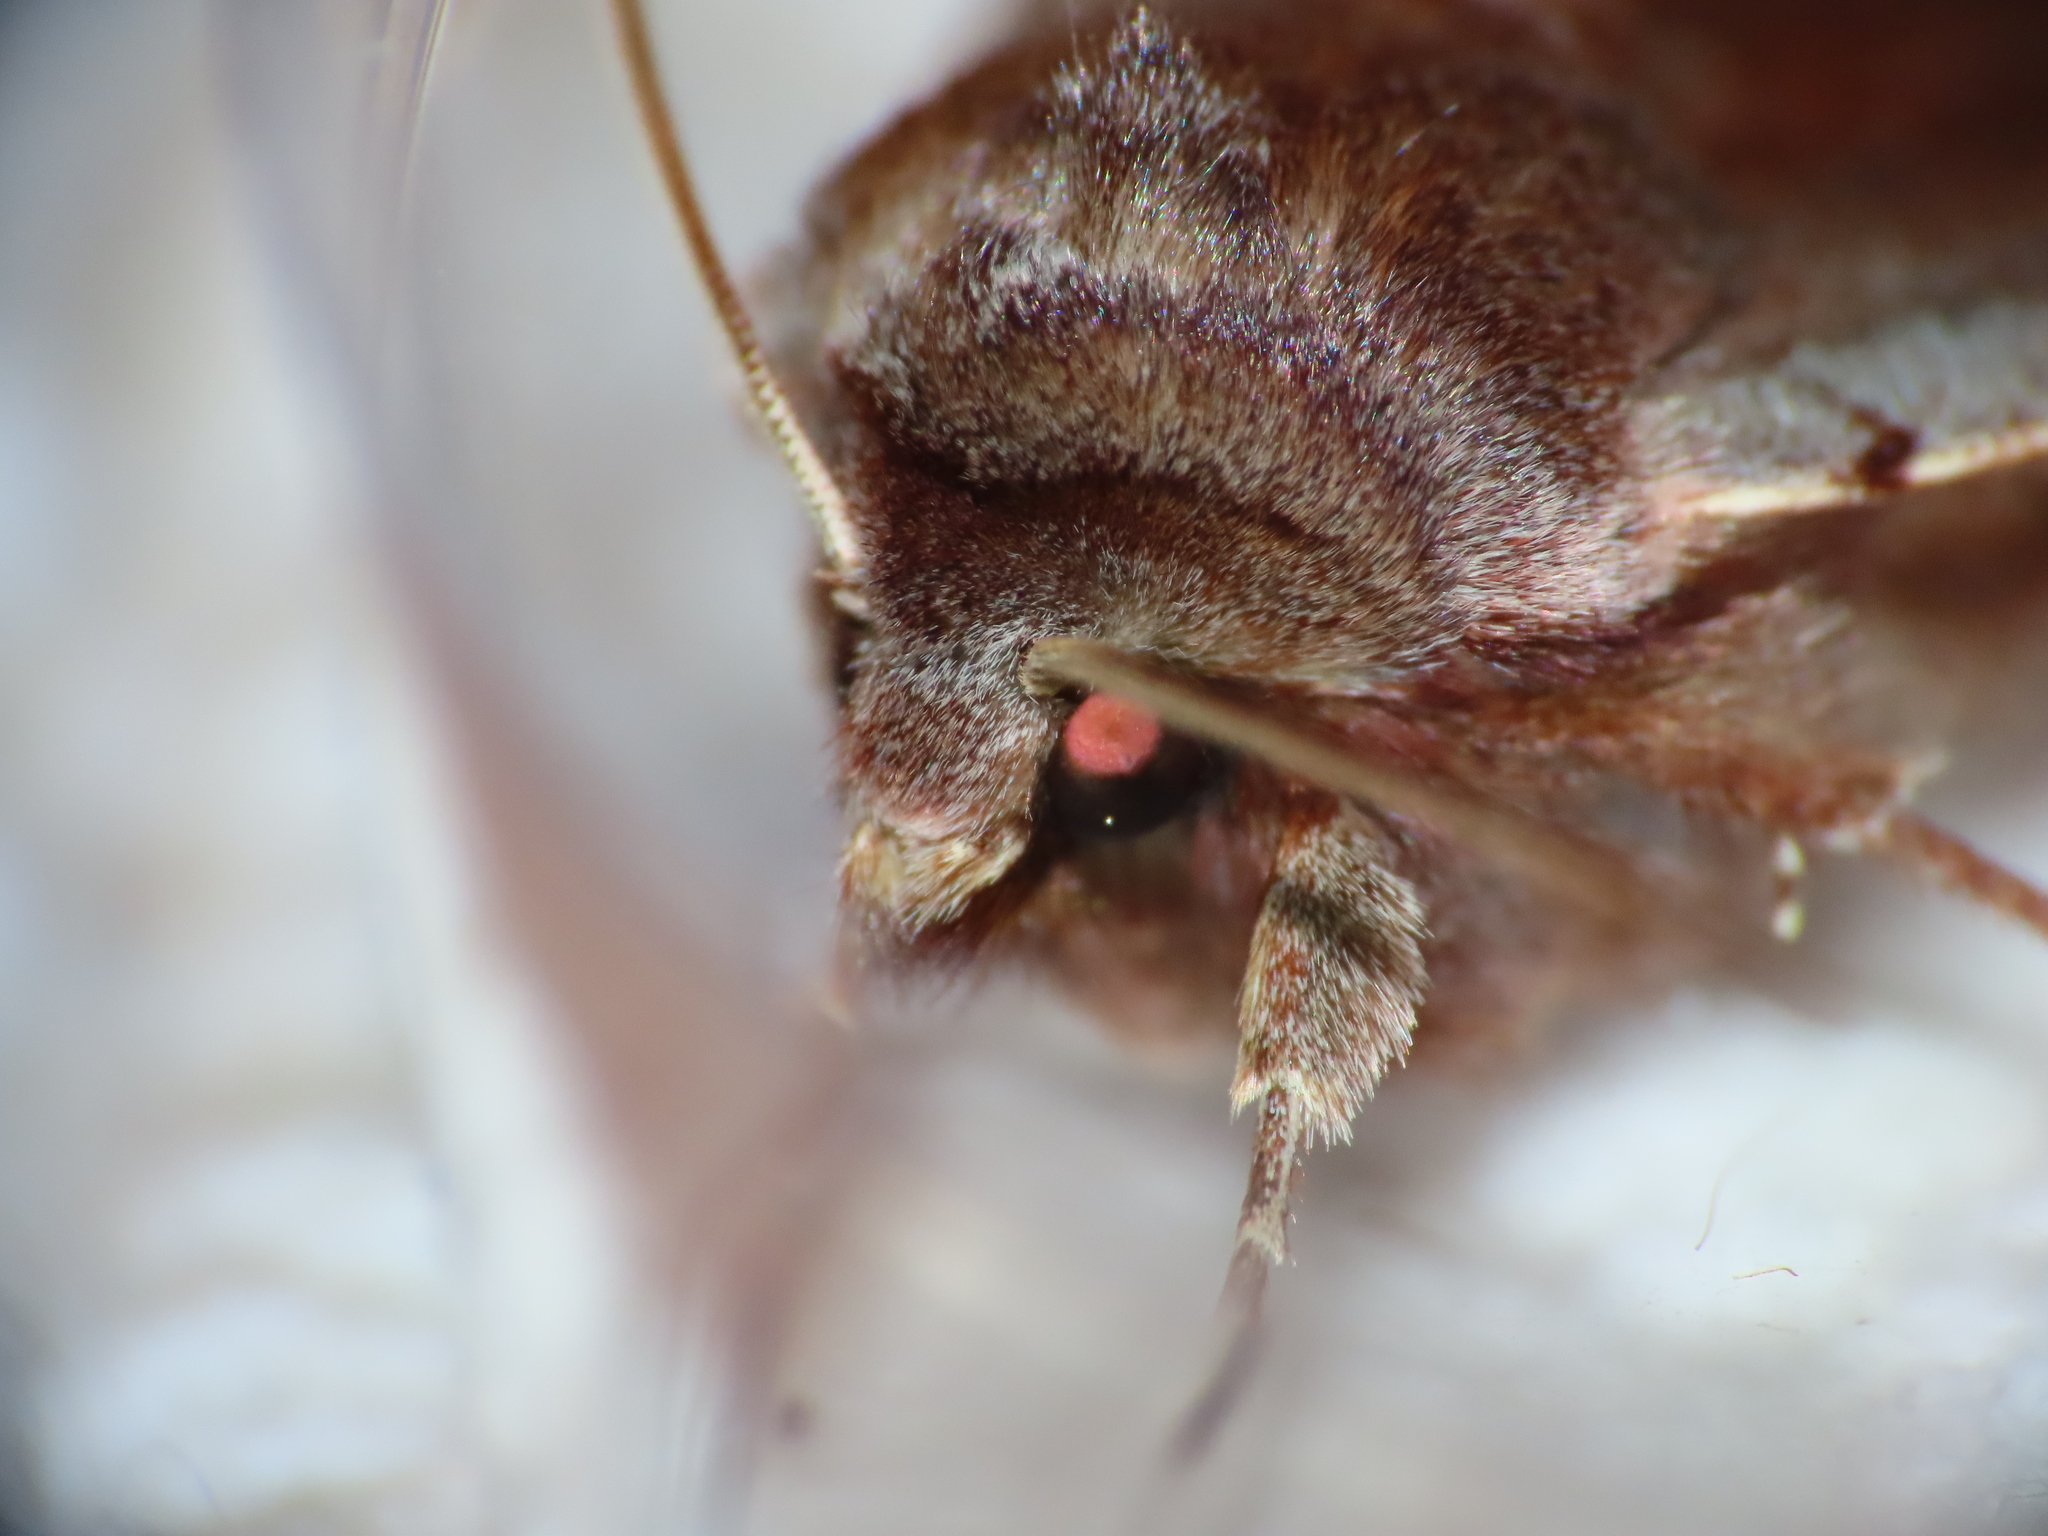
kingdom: Animalia
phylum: Arthropoda
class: Insecta
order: Lepidoptera
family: Noctuidae
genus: Cerastis
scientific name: Cerastis rubricosa
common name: Red chestnut
